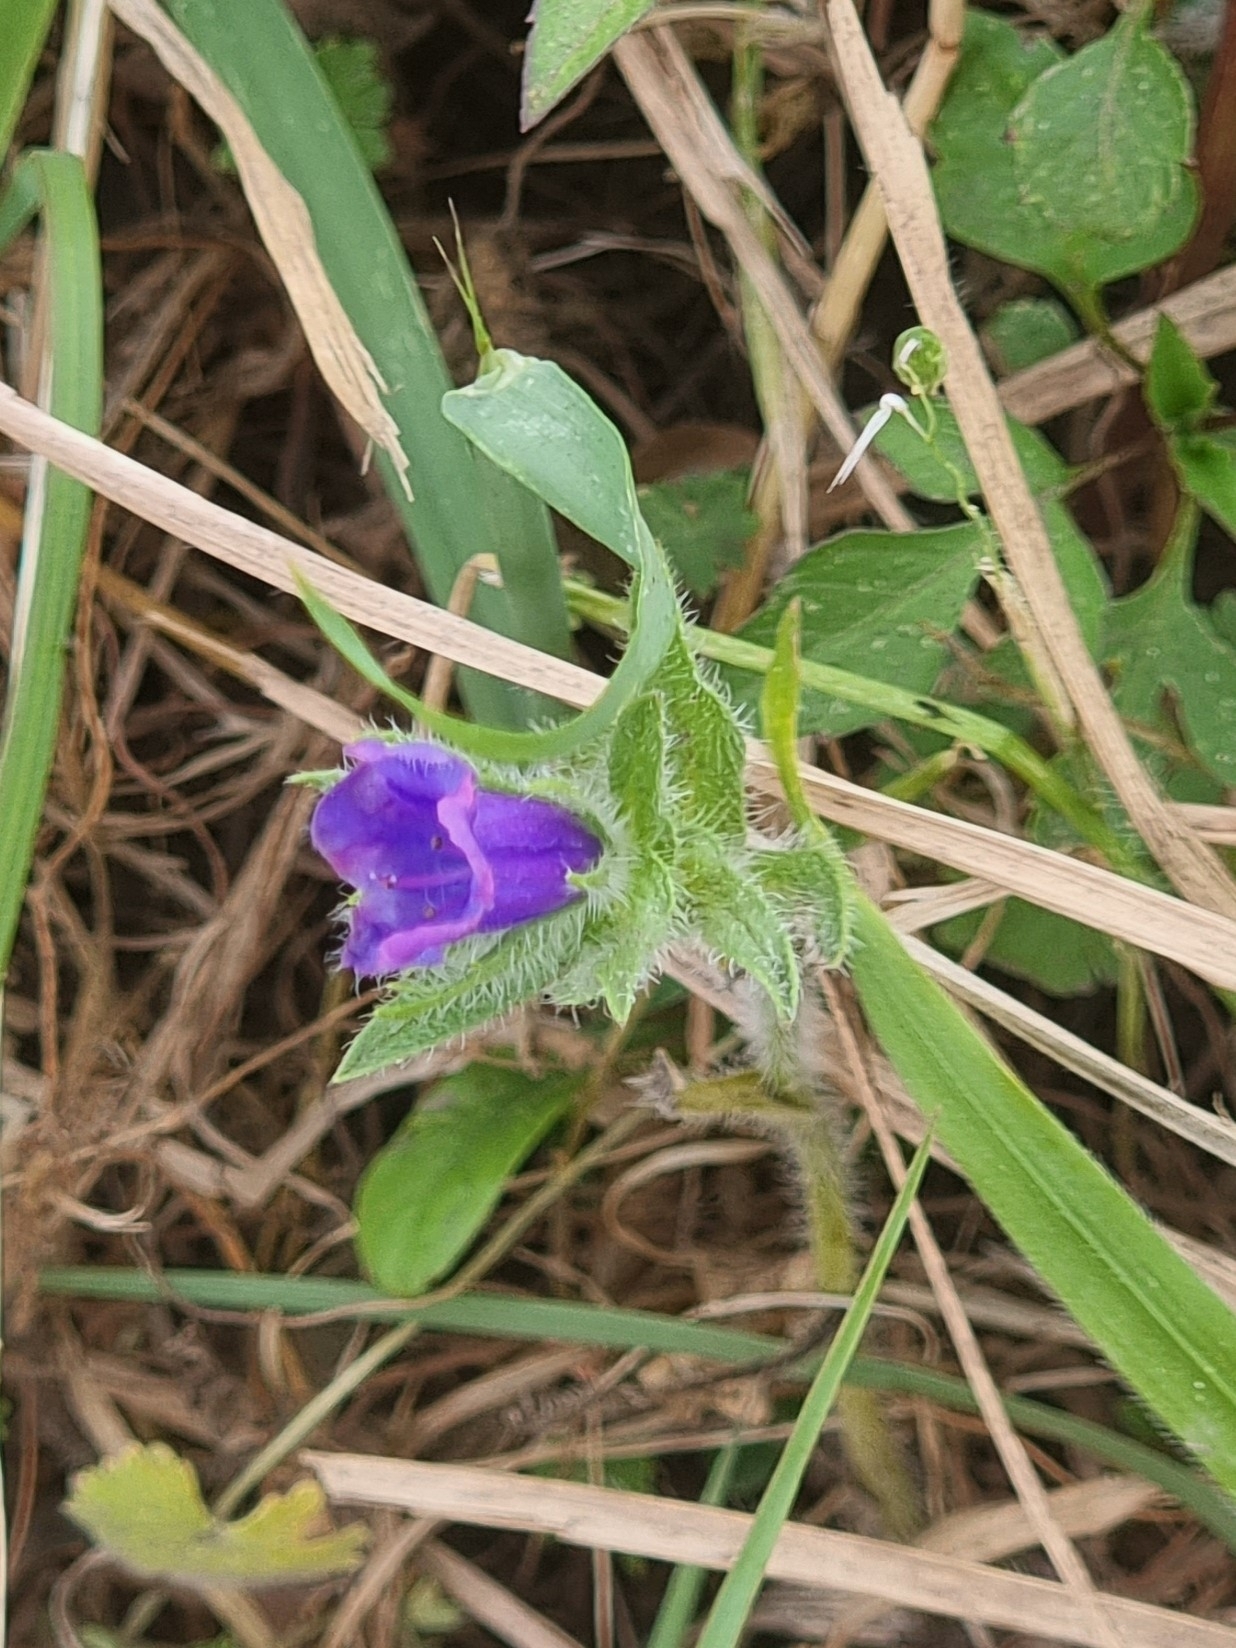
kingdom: Plantae
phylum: Tracheophyta
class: Magnoliopsida
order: Boraginales
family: Boraginaceae
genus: Echium
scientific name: Echium plantagineum
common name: Purple viper's-bugloss
